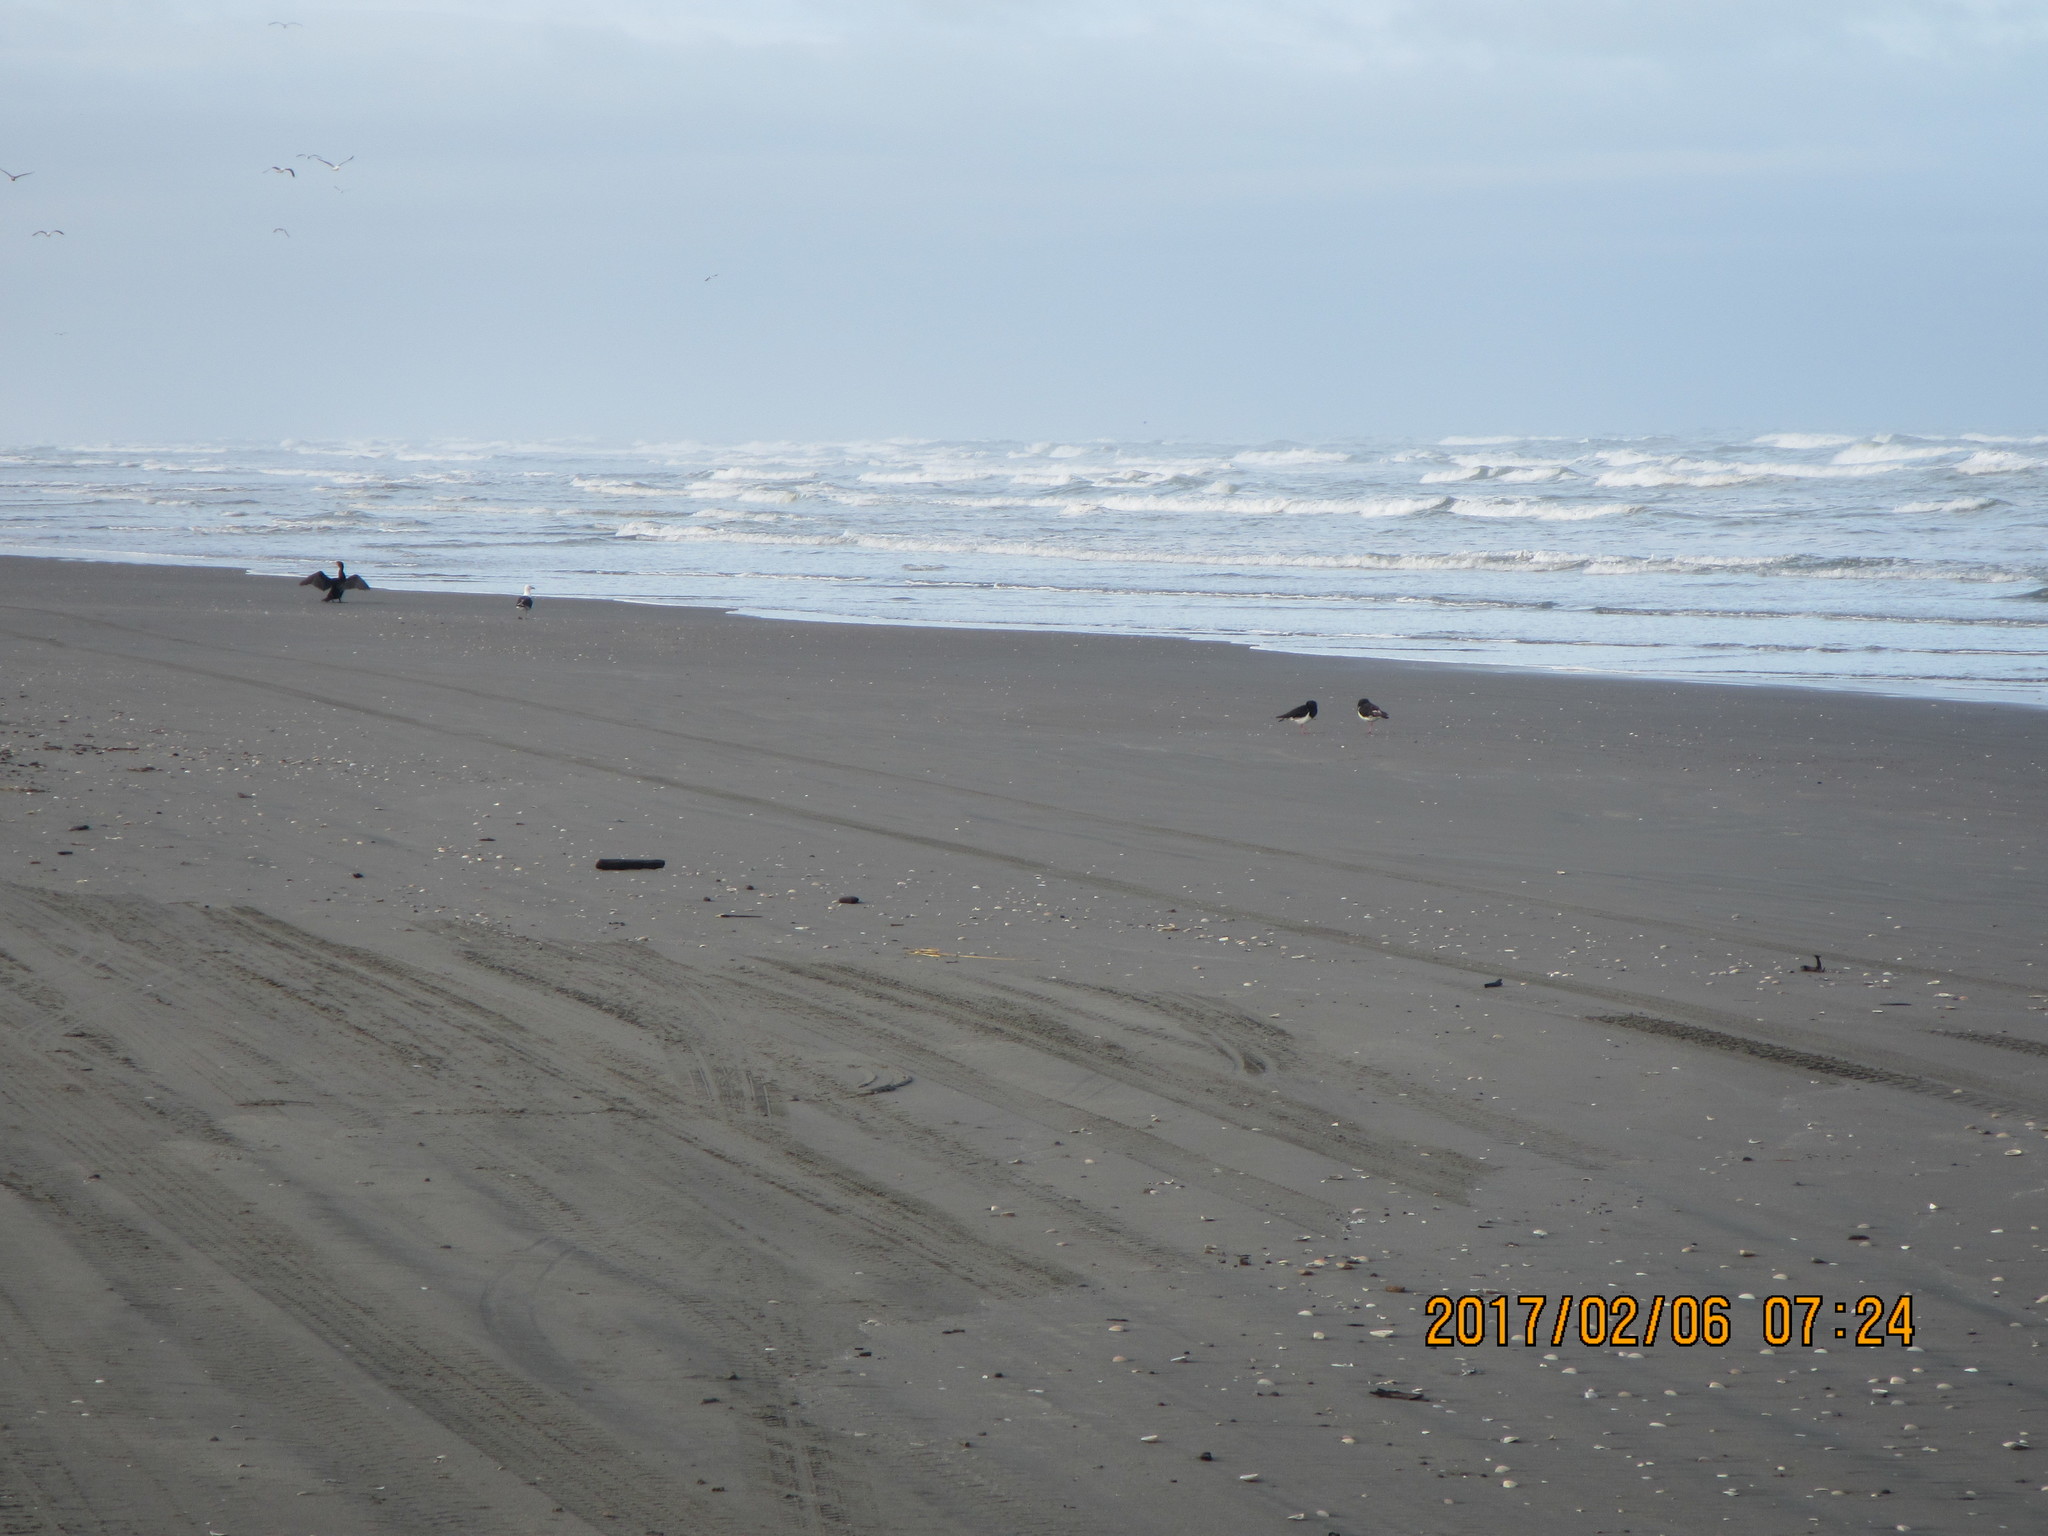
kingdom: Animalia
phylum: Chordata
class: Aves
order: Charadriiformes
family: Haematopodidae
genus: Haematopus
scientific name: Haematopus finschi
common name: South island oystercatcher
